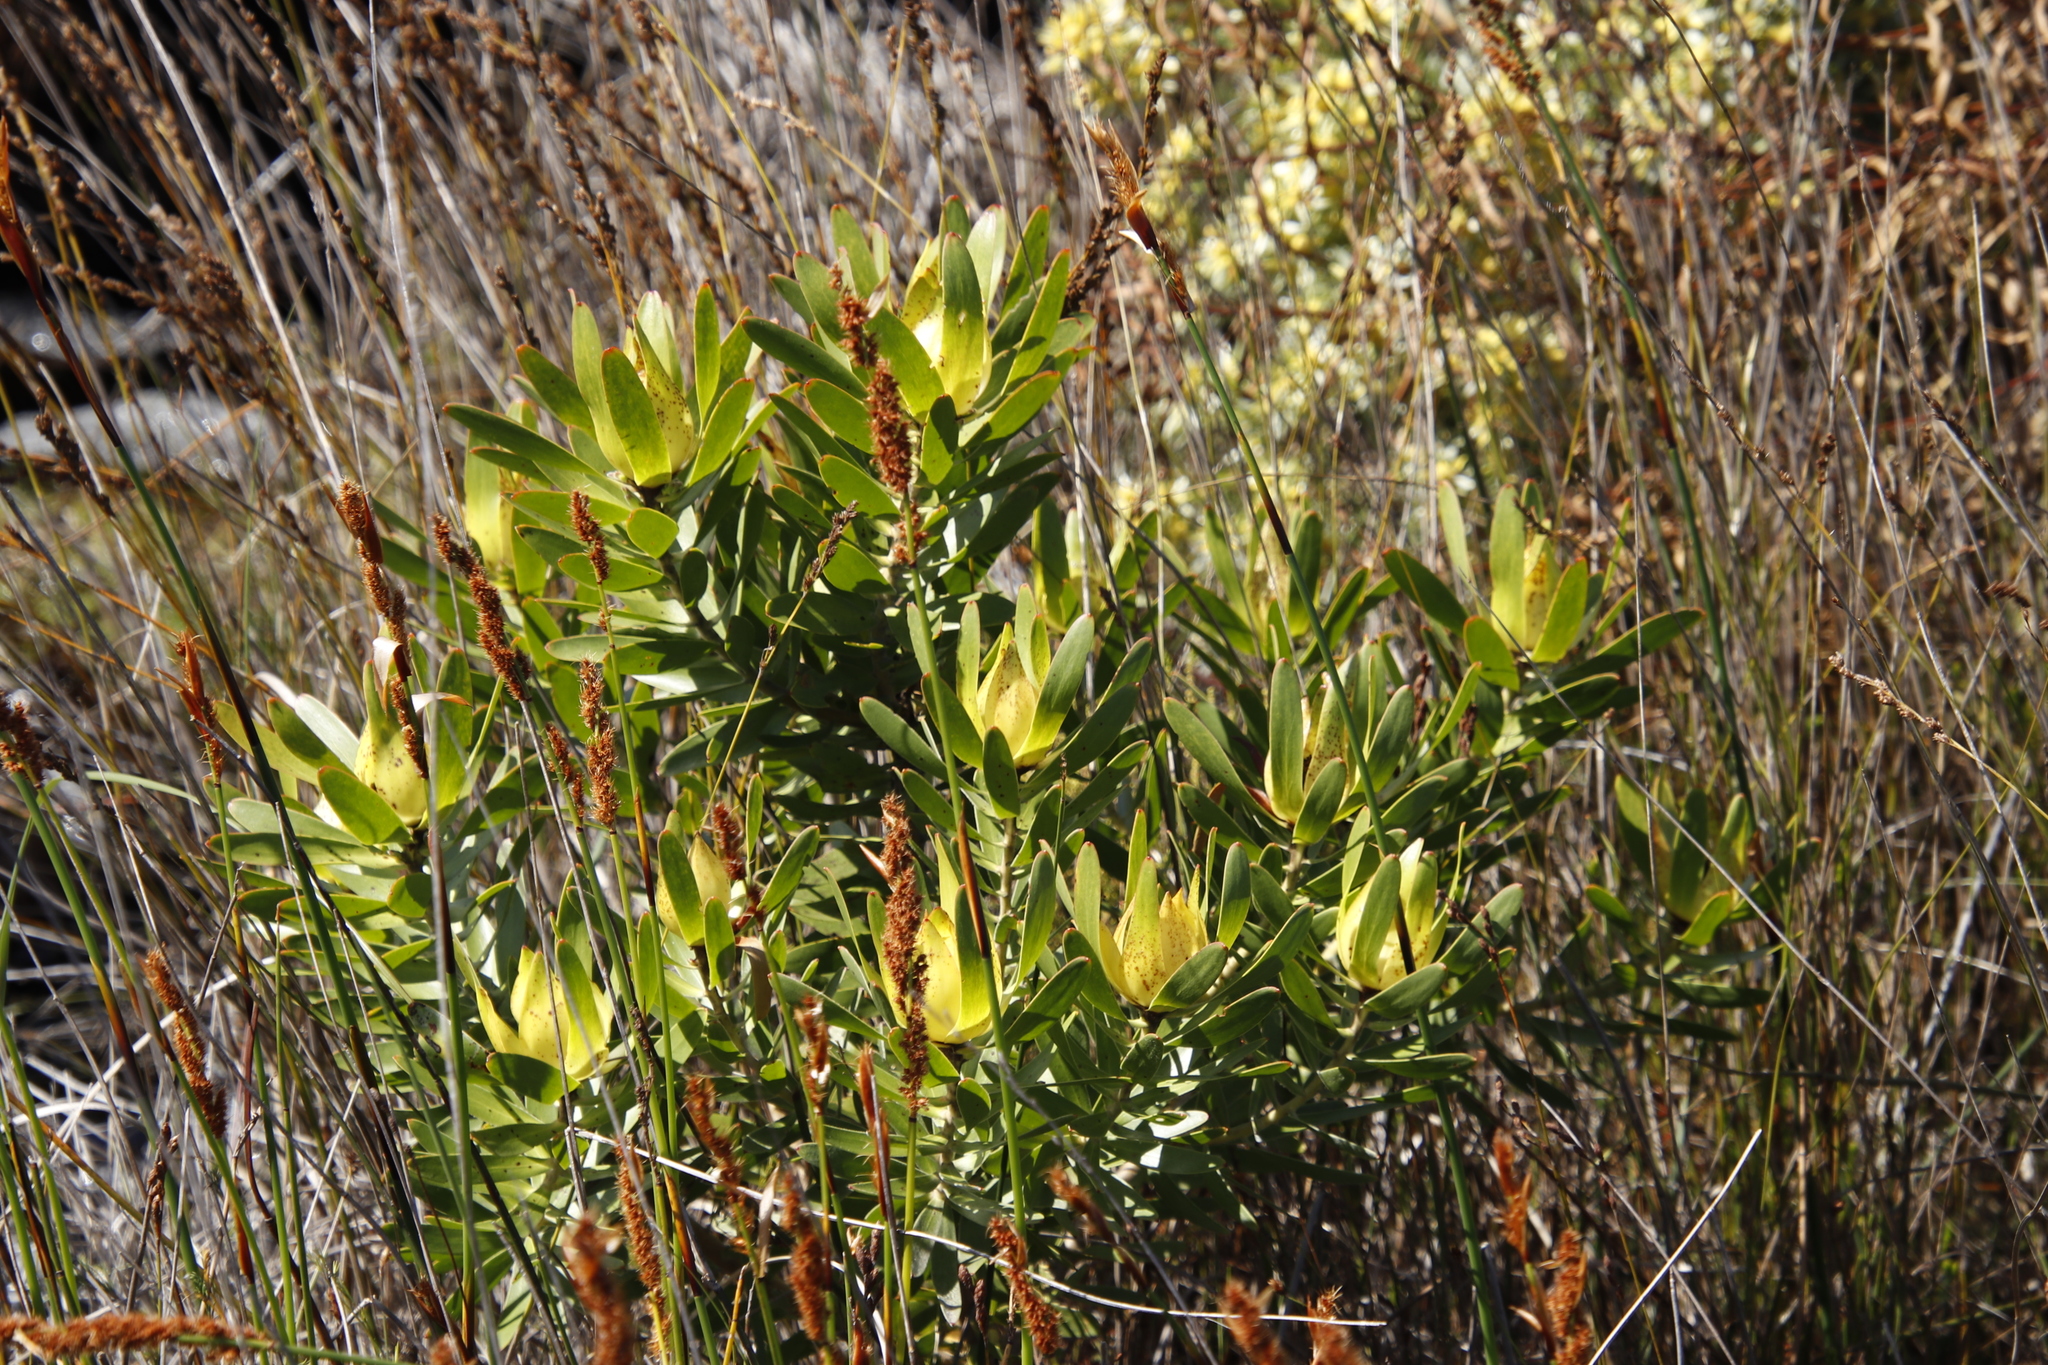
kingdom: Plantae
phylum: Tracheophyta
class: Magnoliopsida
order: Proteales
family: Proteaceae
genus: Leucadendron
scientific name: Leucadendron laureolum
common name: Golden sunshinebush
